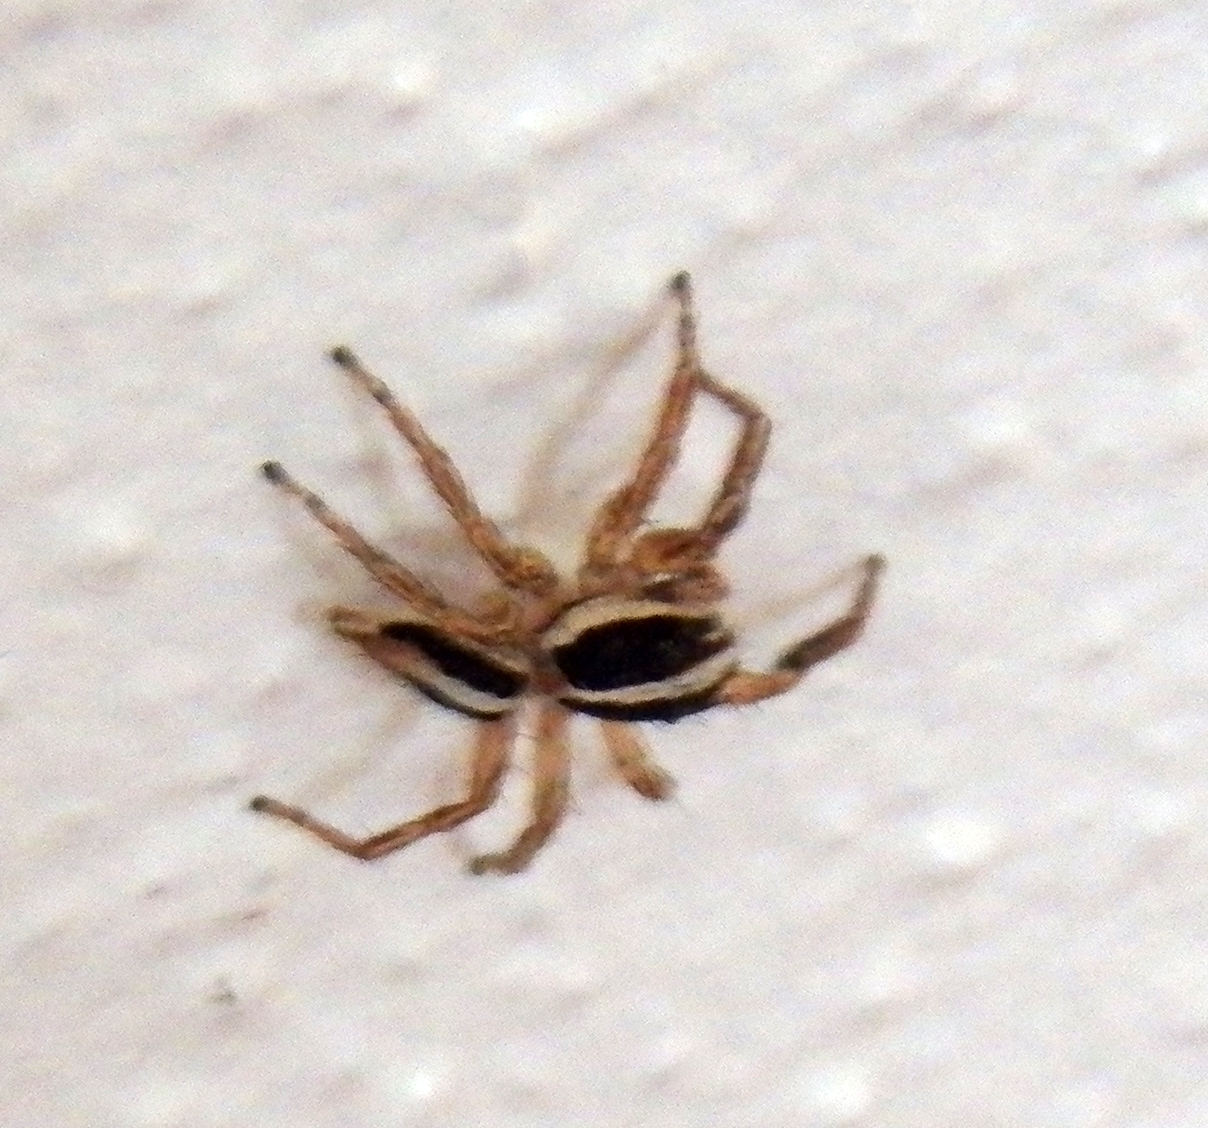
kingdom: Animalia
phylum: Arthropoda
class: Arachnida
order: Araneae
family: Salticidae
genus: Plexippus
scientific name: Plexippus paykulli
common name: Pantropical jumper
